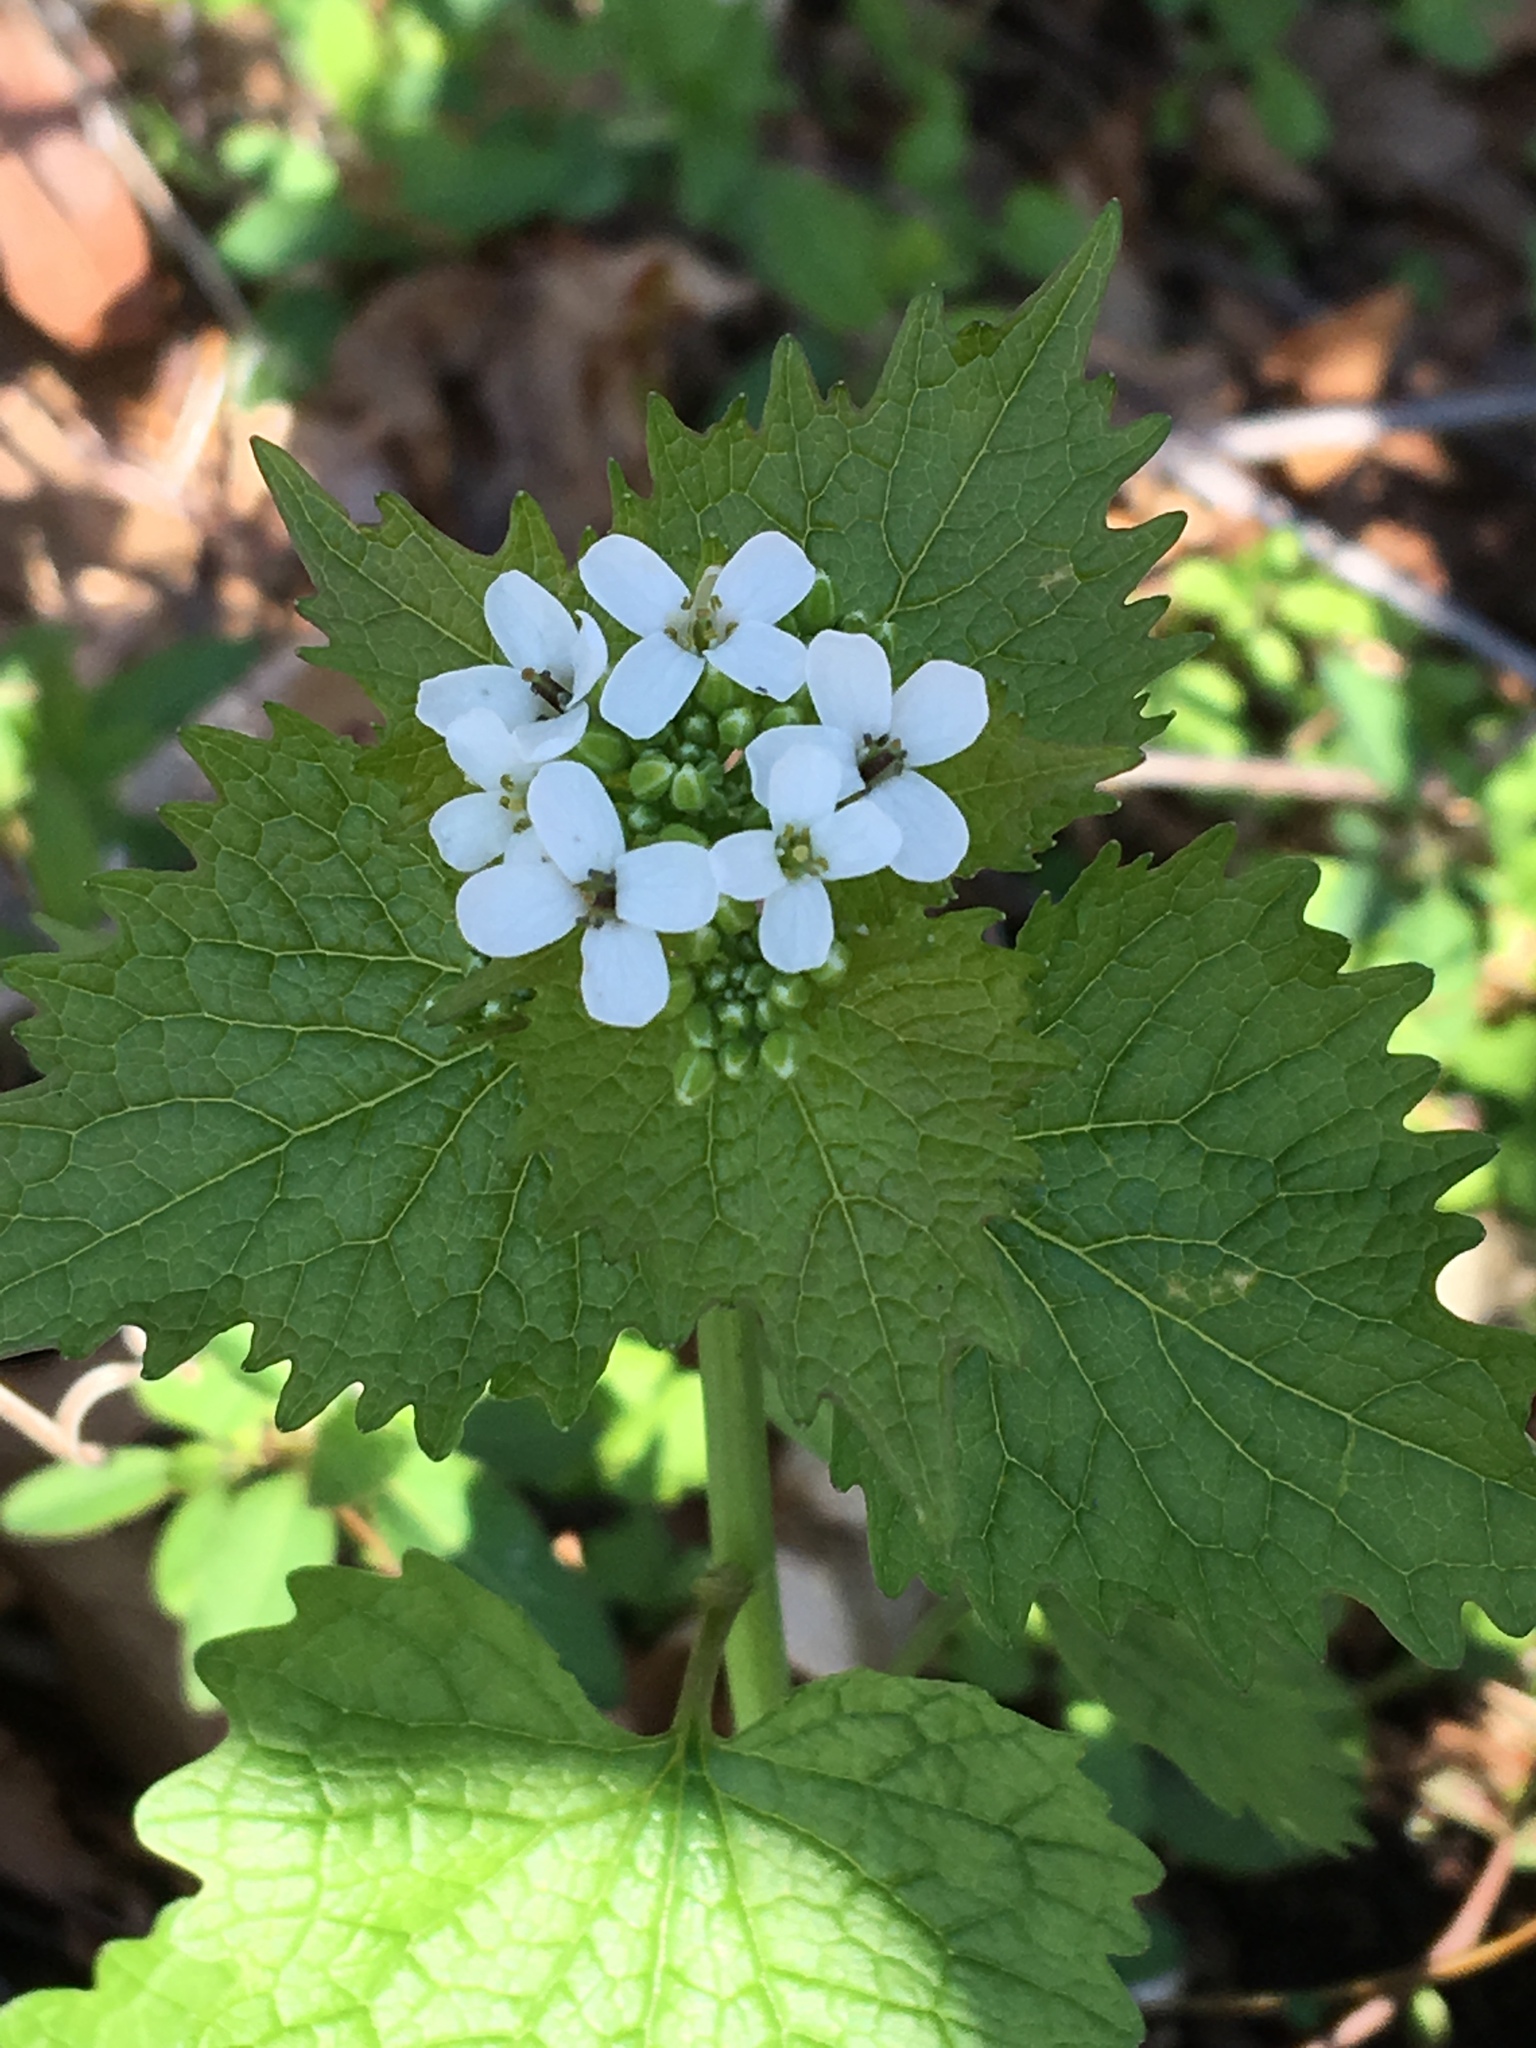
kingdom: Plantae
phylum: Tracheophyta
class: Magnoliopsida
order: Brassicales
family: Brassicaceae
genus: Alliaria
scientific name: Alliaria petiolata
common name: Garlic mustard
